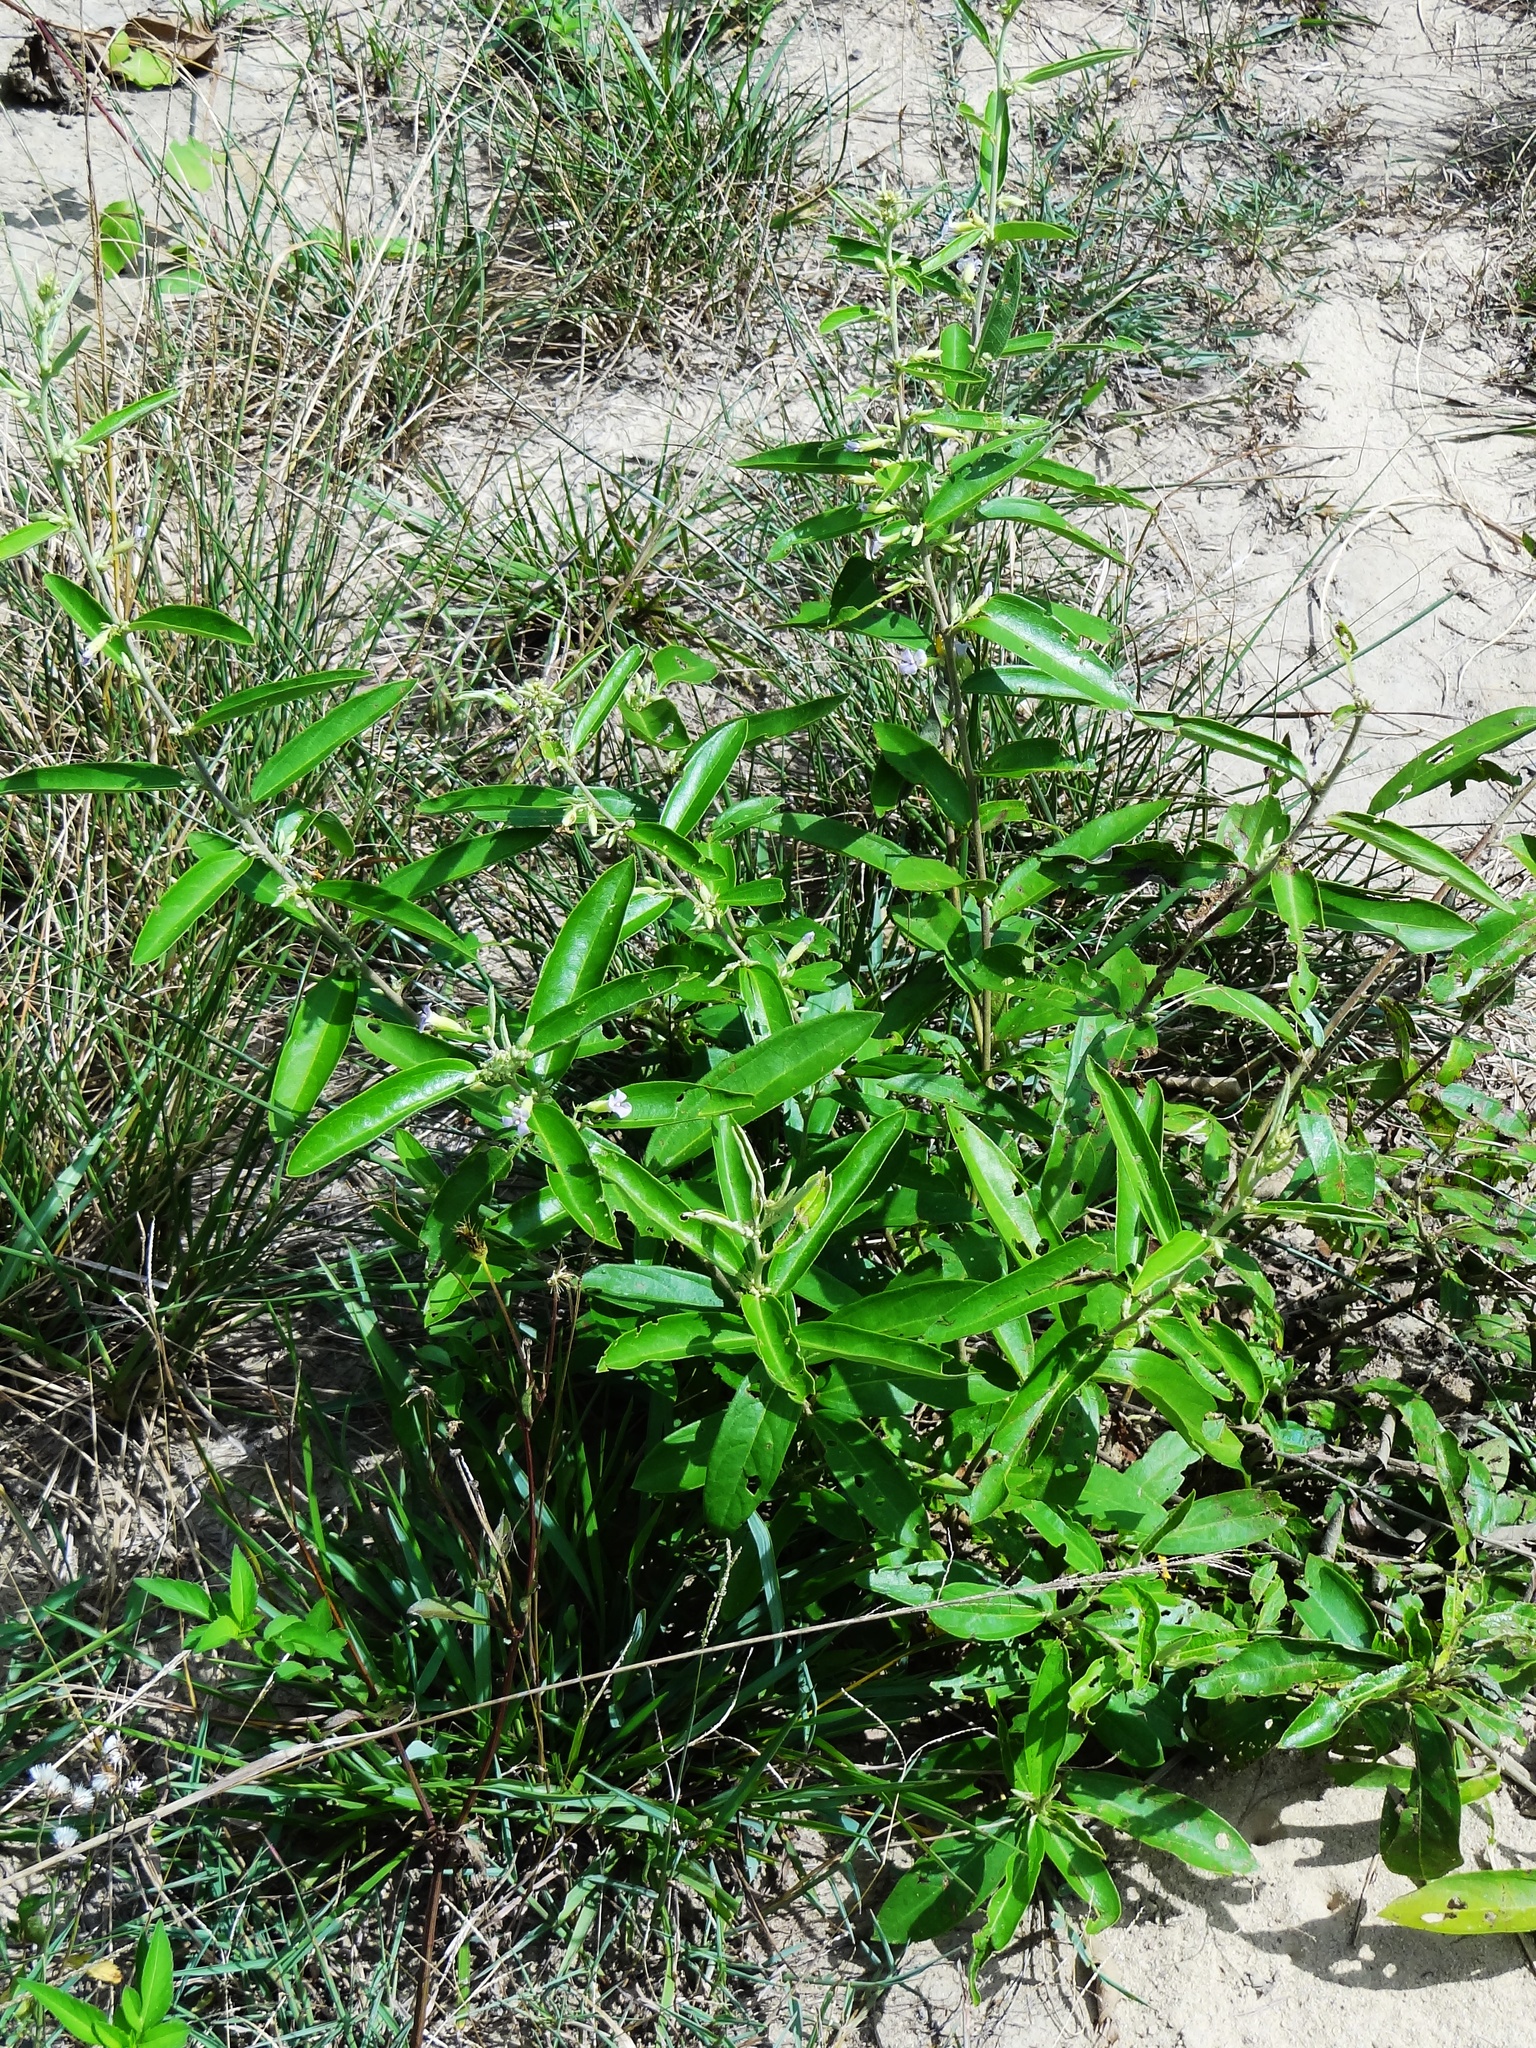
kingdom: Plantae
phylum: Tracheophyta
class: Magnoliopsida
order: Malvales
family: Malvaceae
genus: Helicteres
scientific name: Helicteres angustifolia
